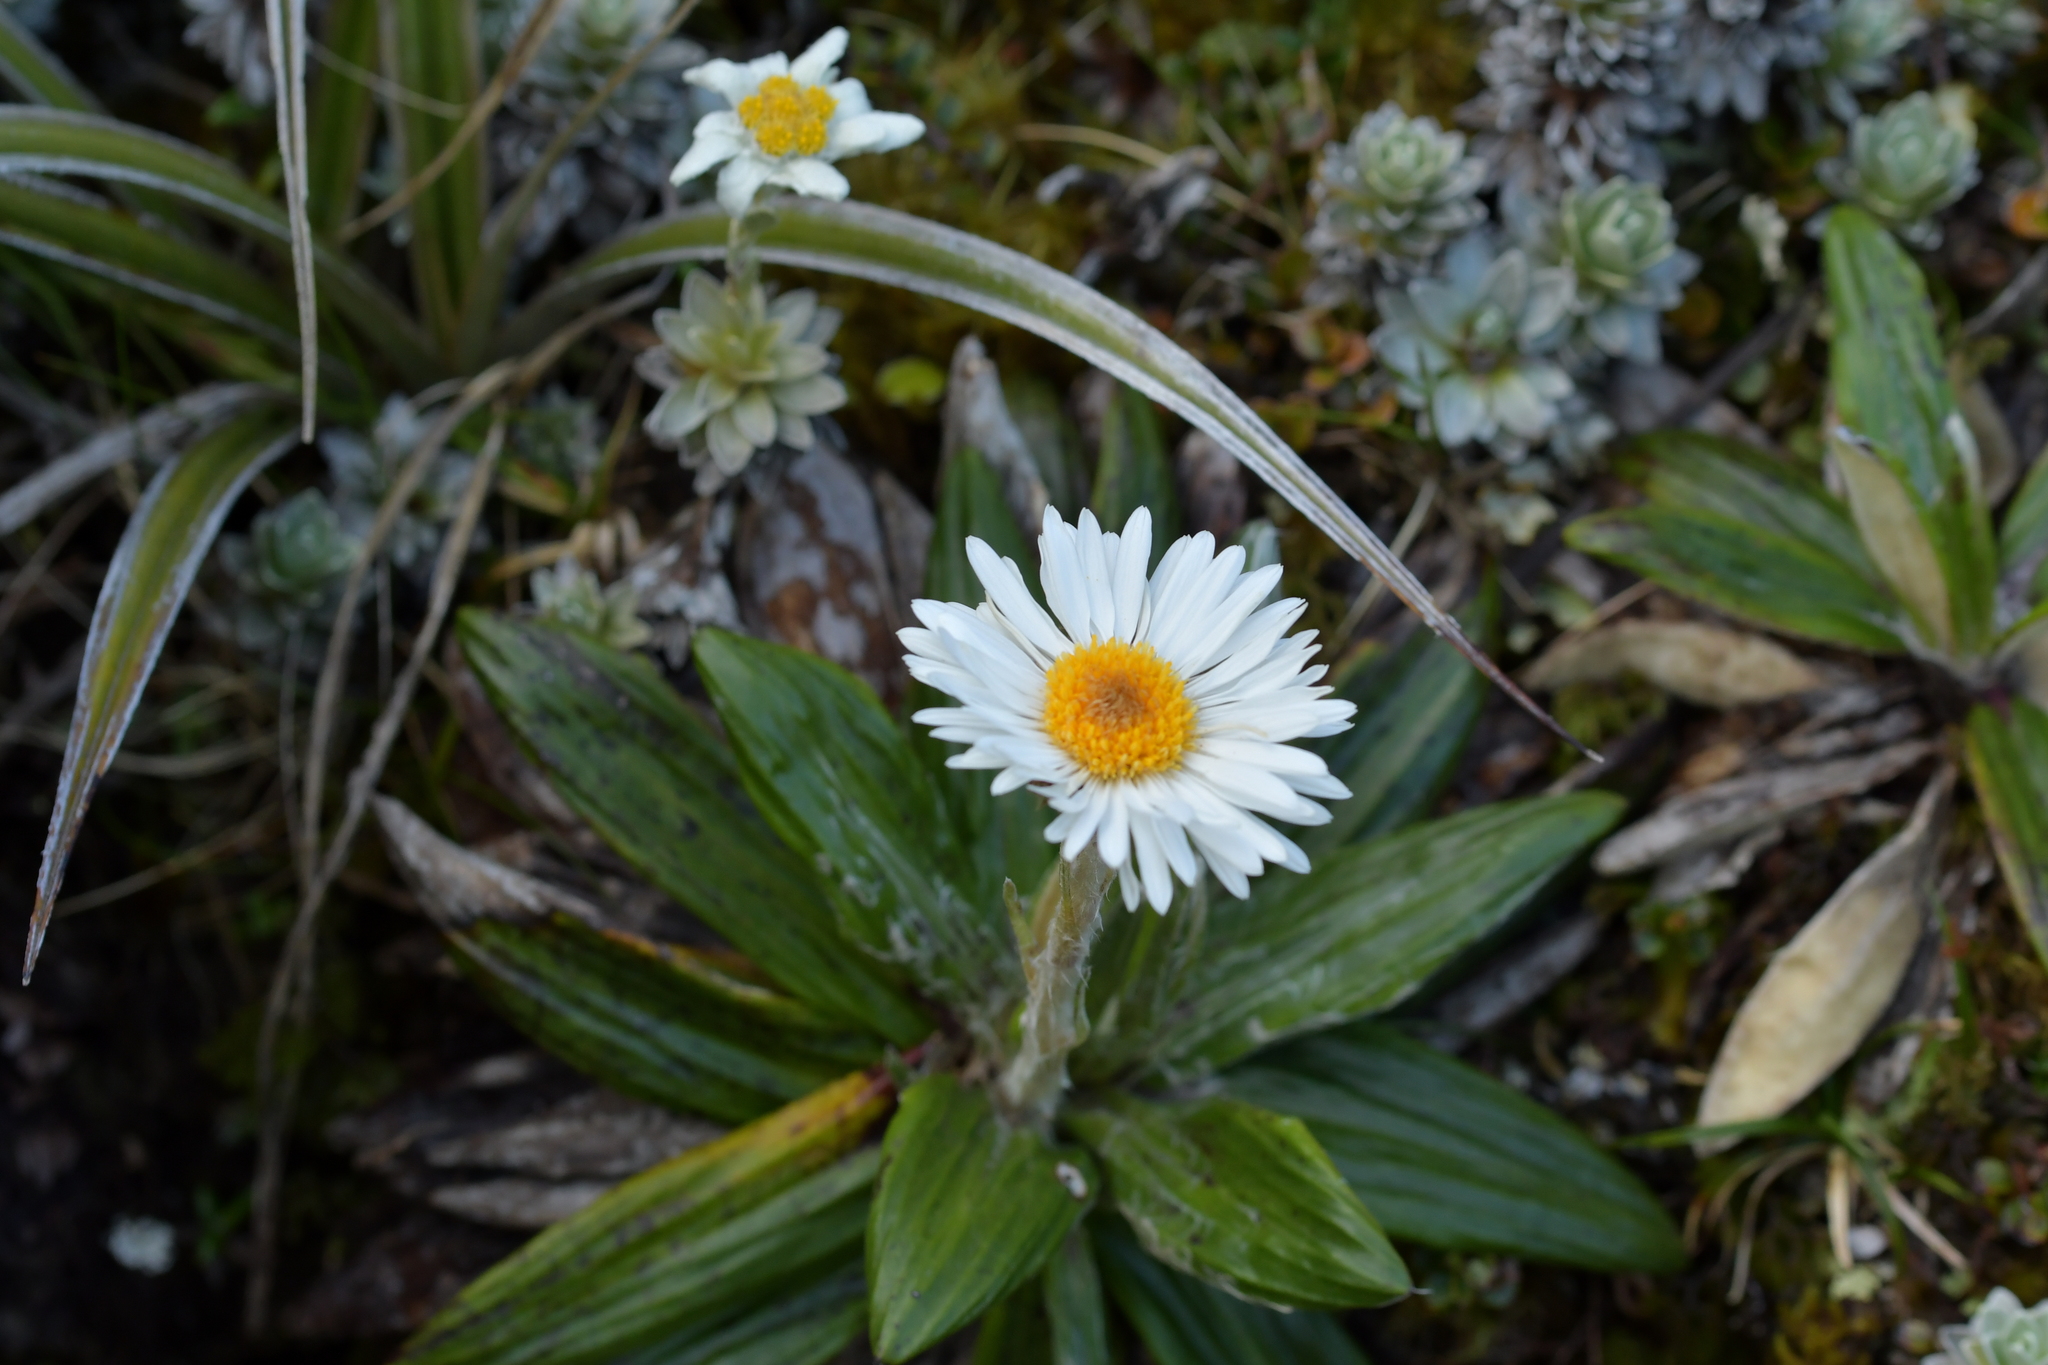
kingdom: Plantae
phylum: Tracheophyta
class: Magnoliopsida
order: Asterales
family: Asteraceae
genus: Celmisia
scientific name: Celmisia spectabilis
